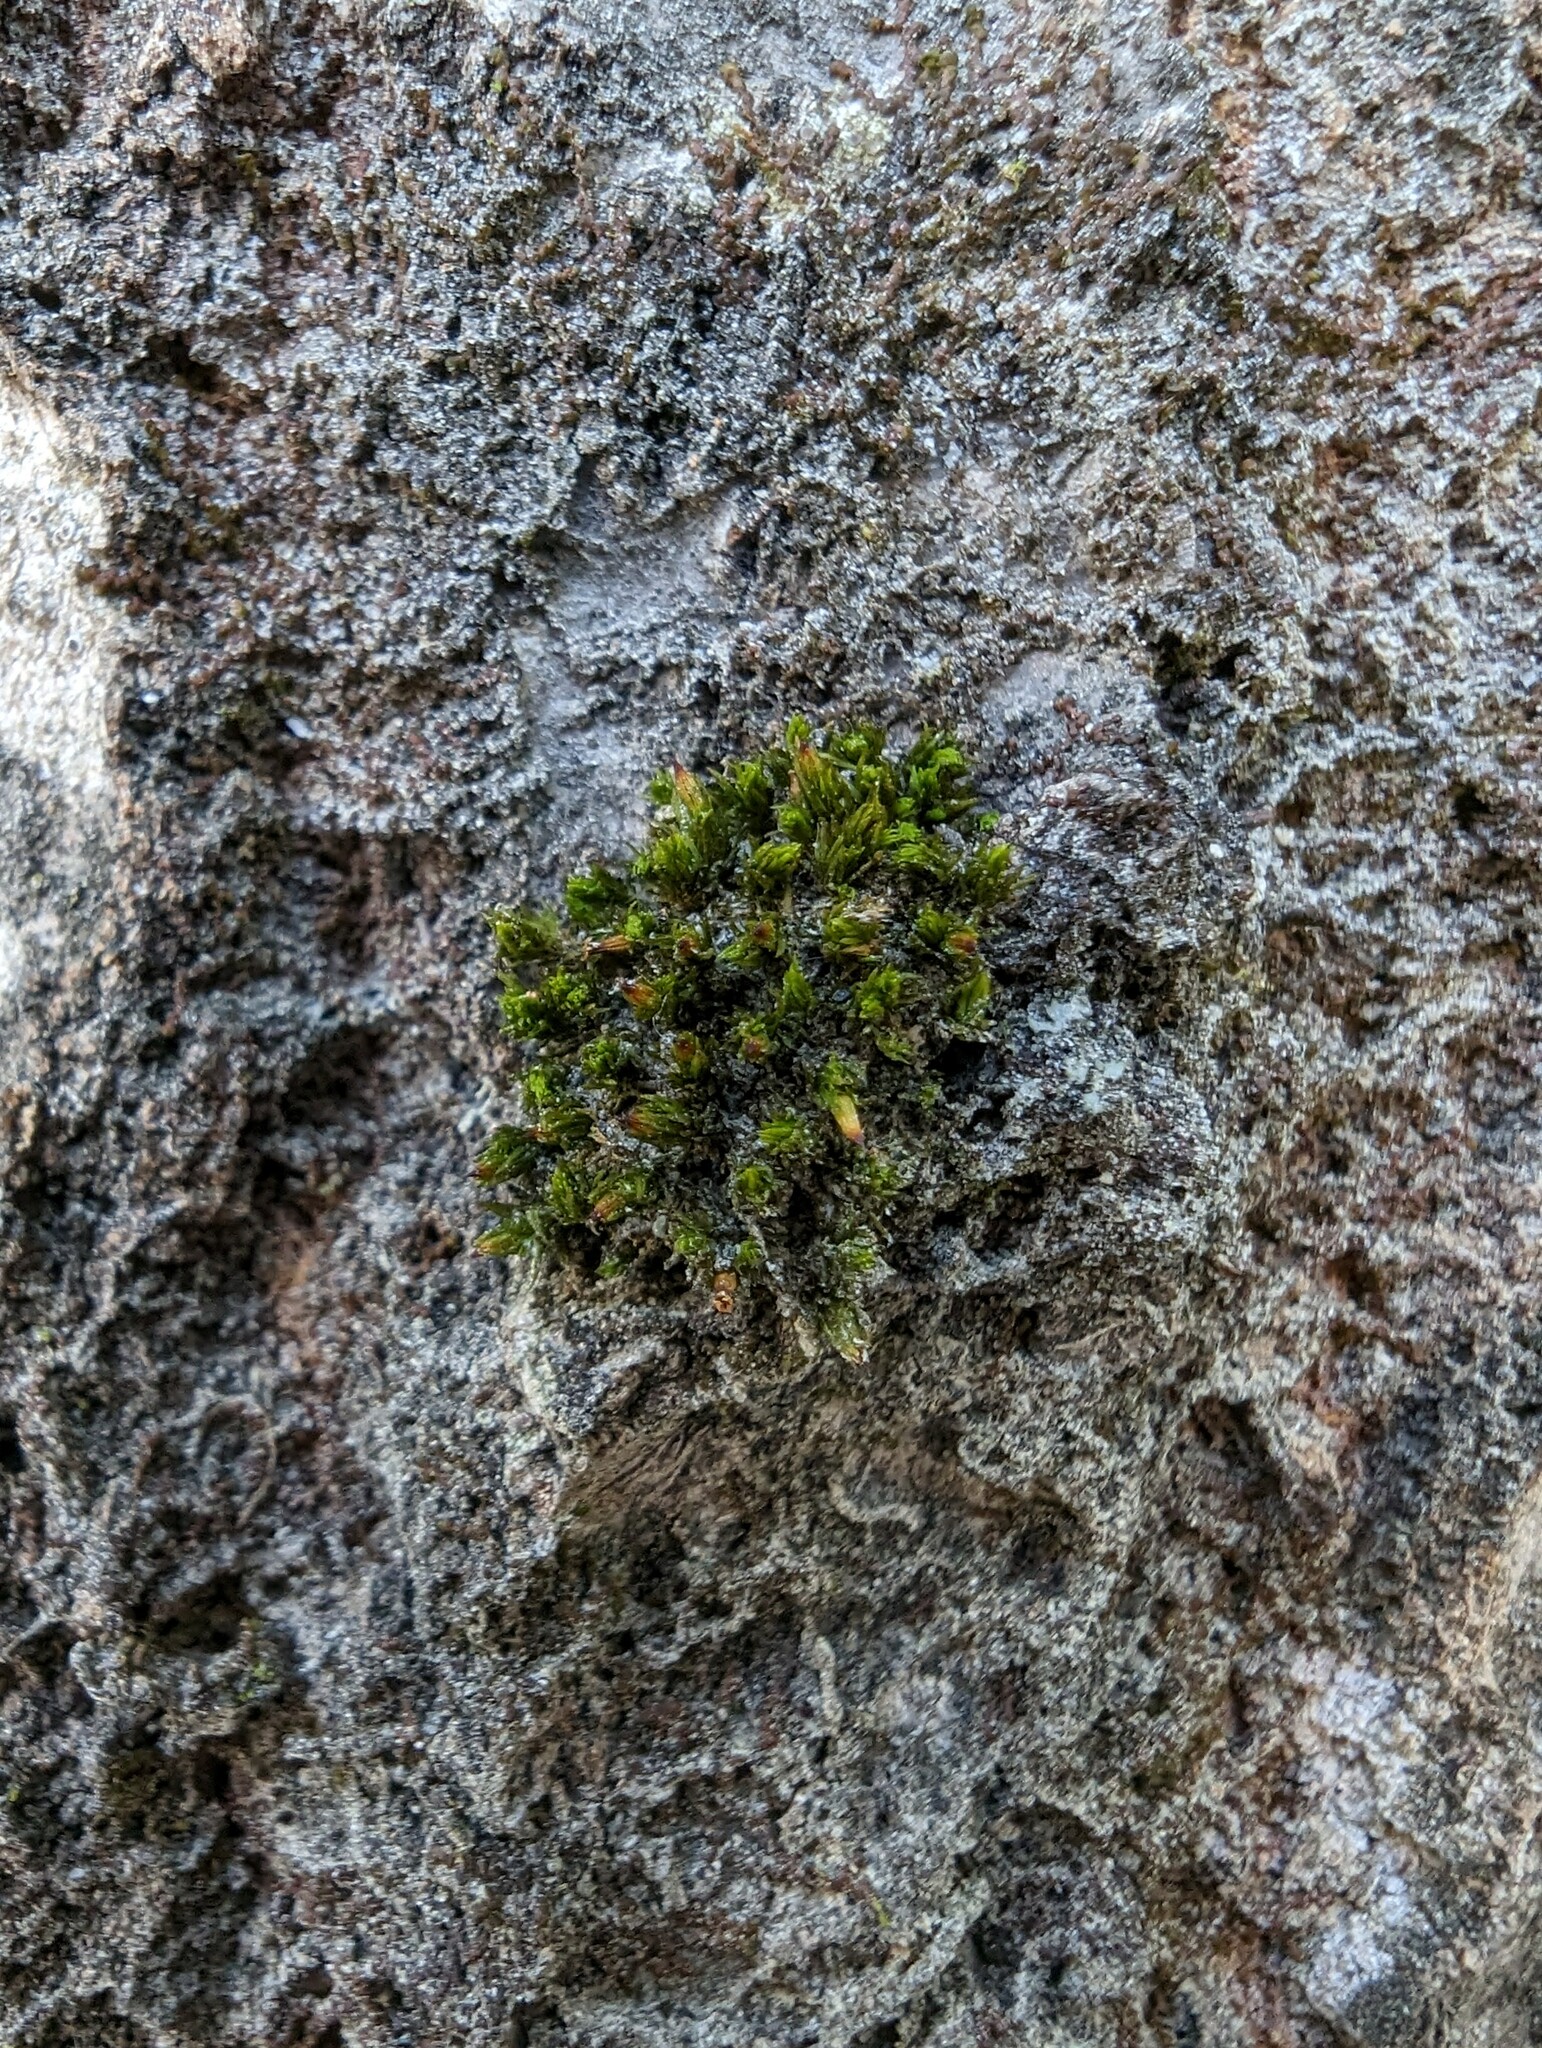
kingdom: Plantae
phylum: Bryophyta
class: Bryopsida
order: Orthotrichales
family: Orthotrichaceae
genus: Ulota
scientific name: Ulota crispa
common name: Crisped pincushion moss
